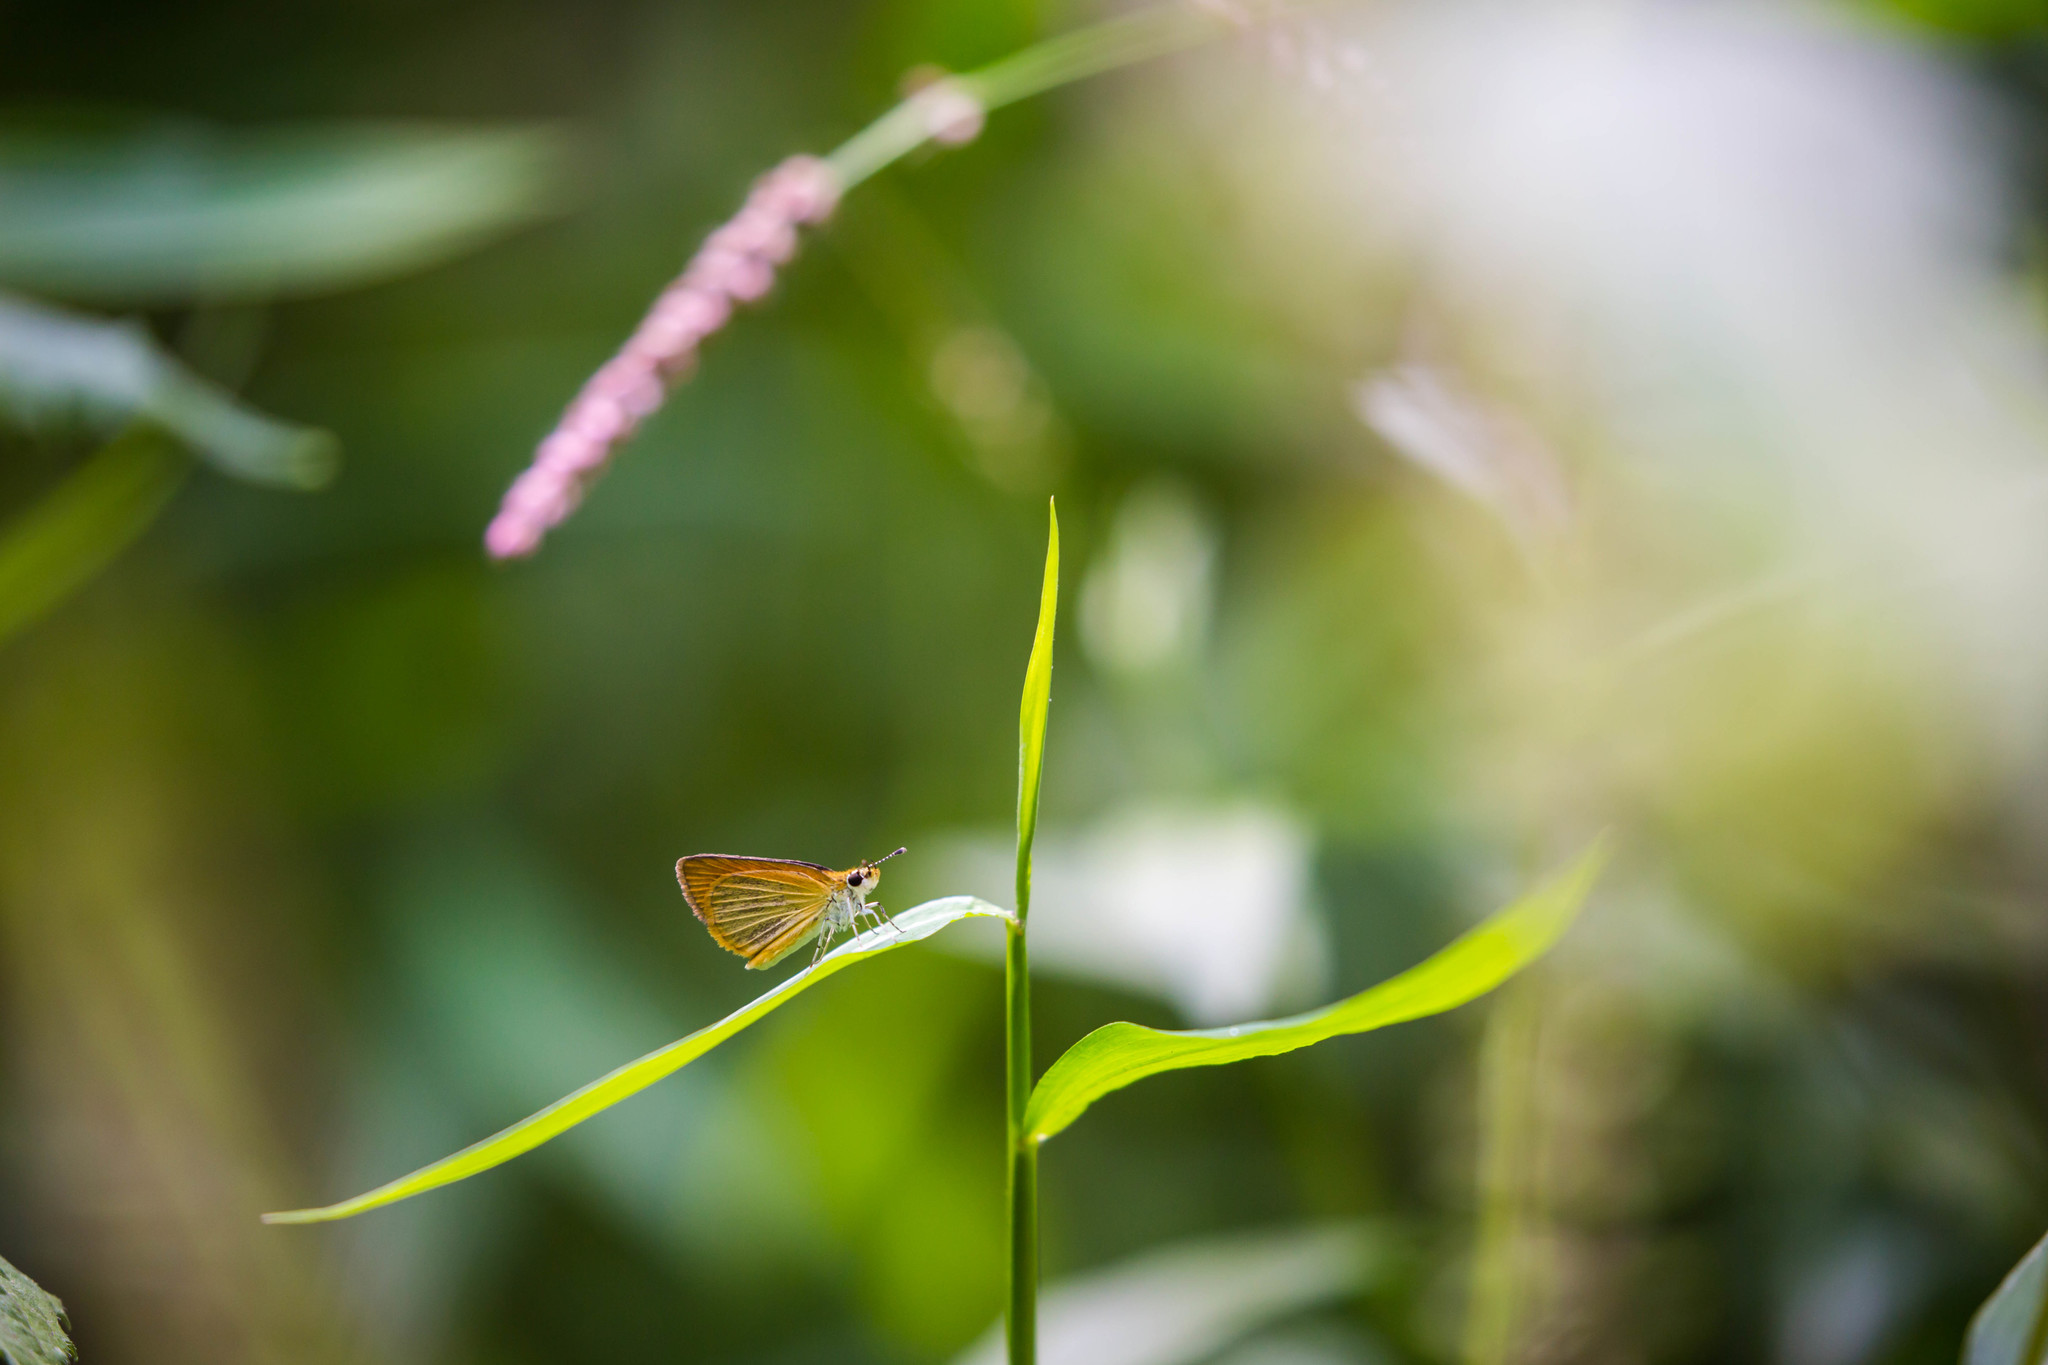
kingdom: Animalia
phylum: Arthropoda
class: Insecta
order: Lepidoptera
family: Hesperiidae
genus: Ancyloxypha
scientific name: Ancyloxypha numitor
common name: Least skipper
